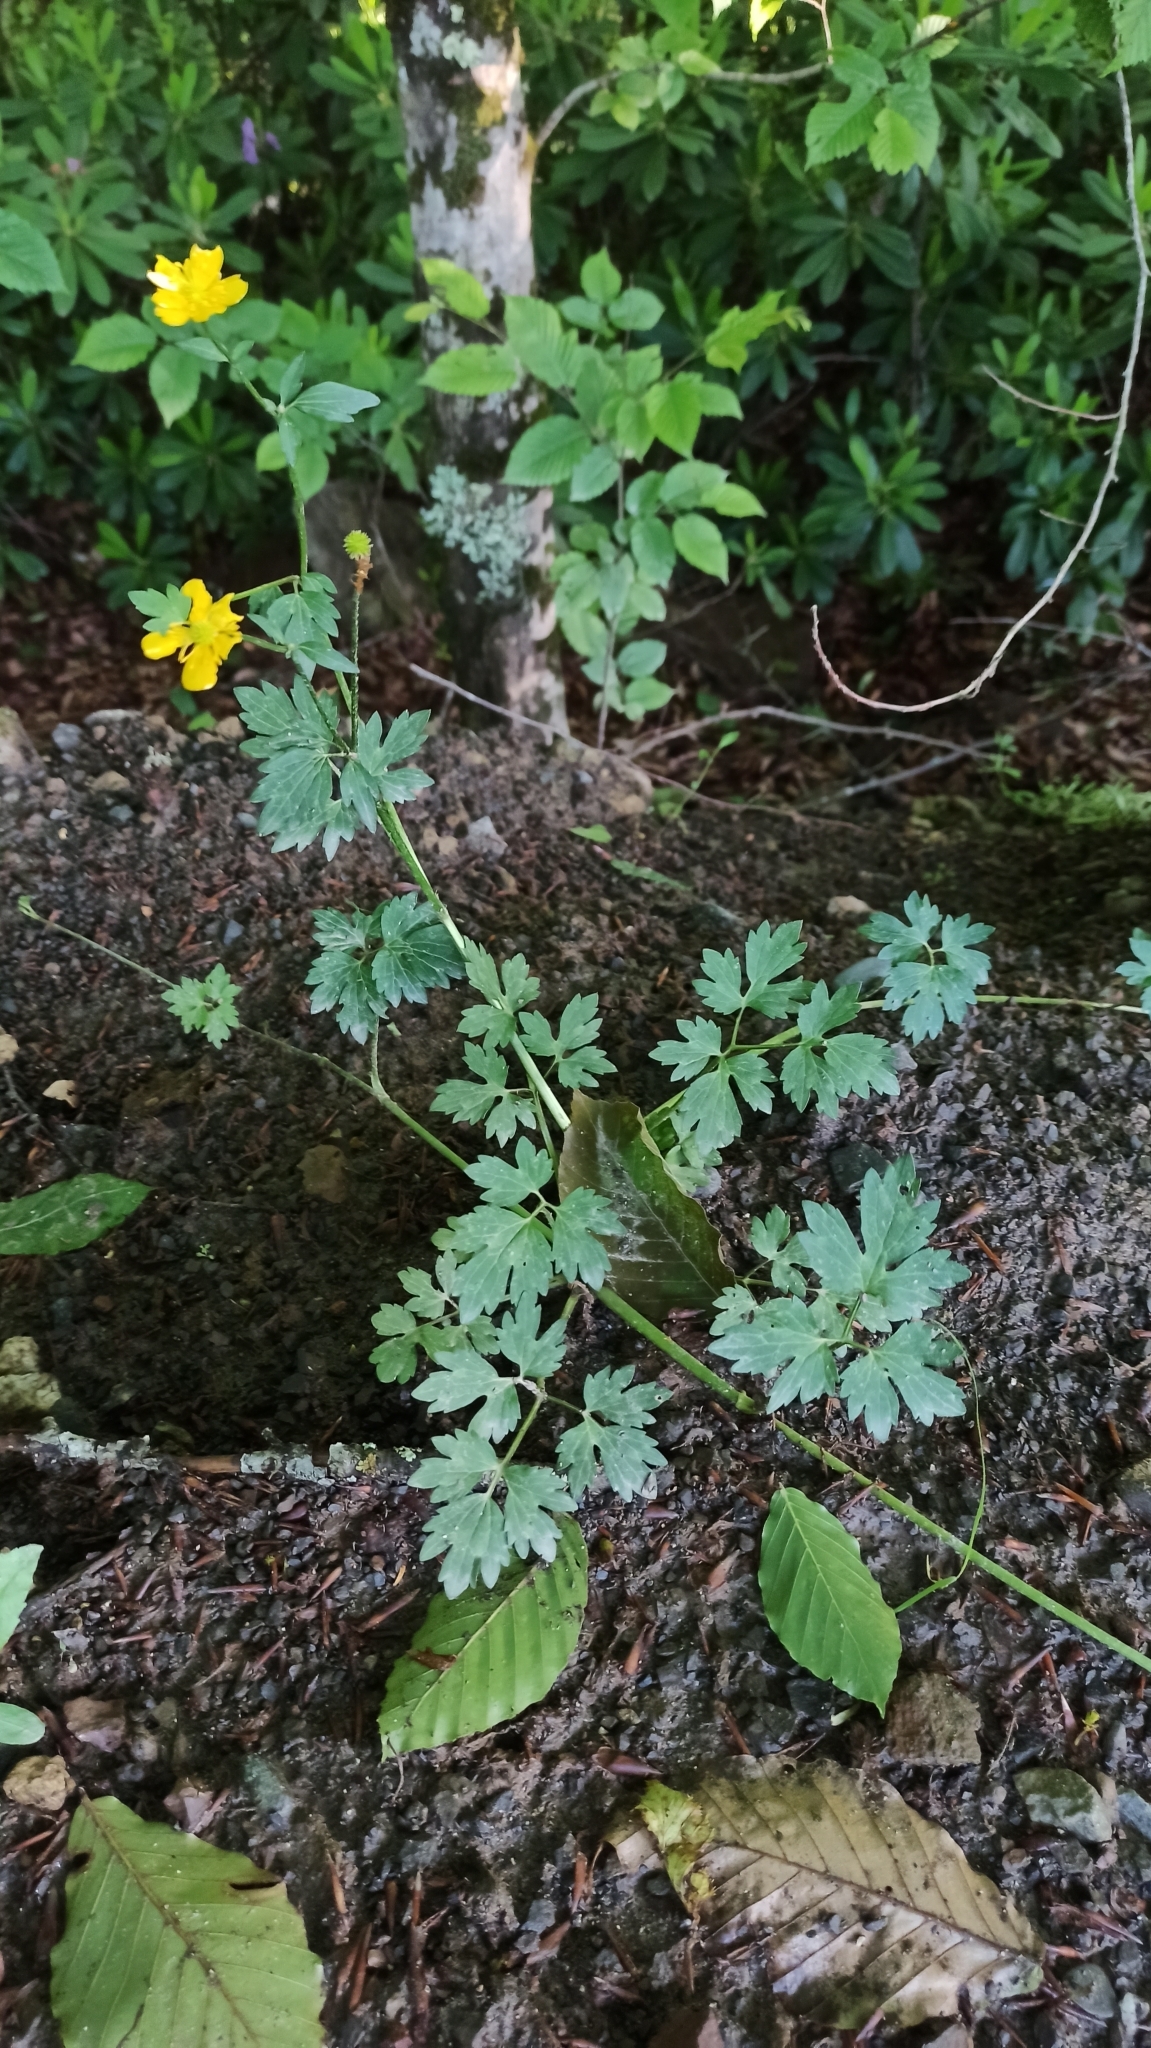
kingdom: Plantae
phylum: Tracheophyta
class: Magnoliopsida
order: Ranunculales
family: Ranunculaceae
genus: Ranunculus
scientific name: Ranunculus repens
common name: Creeping buttercup
